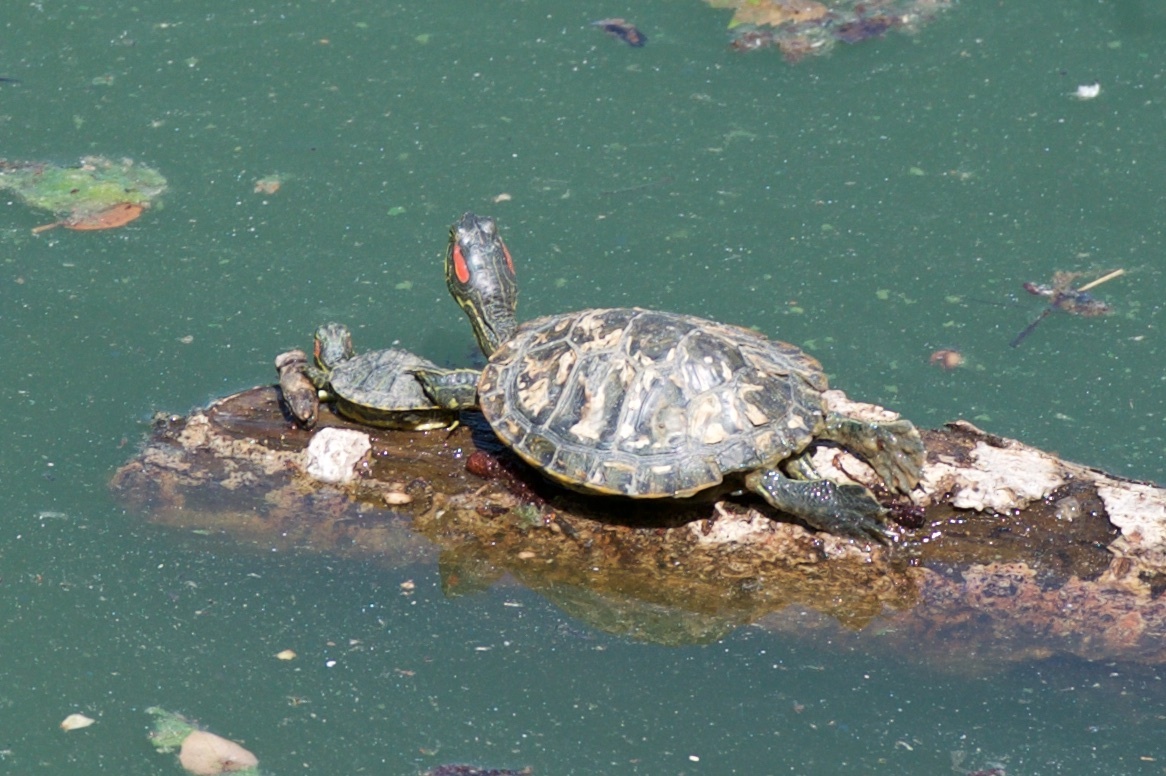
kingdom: Animalia
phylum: Chordata
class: Testudines
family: Emydidae
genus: Trachemys
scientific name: Trachemys scripta
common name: Slider
